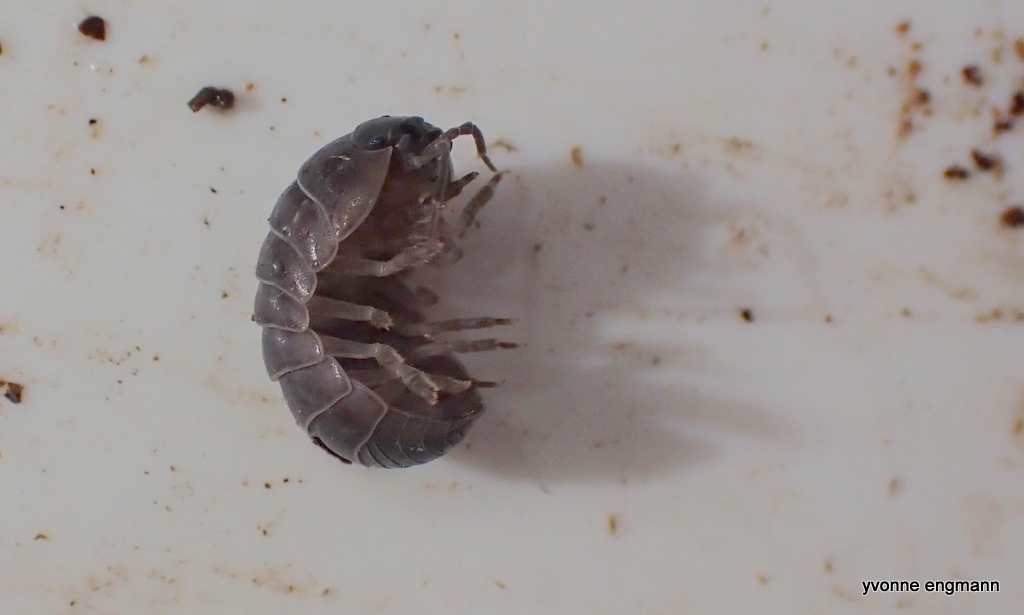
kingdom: Animalia
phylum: Arthropoda
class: Malacostraca
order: Isopoda
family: Armadillidiidae
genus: Armadillidium
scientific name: Armadillidium vulgare
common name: Common pill woodlouse
